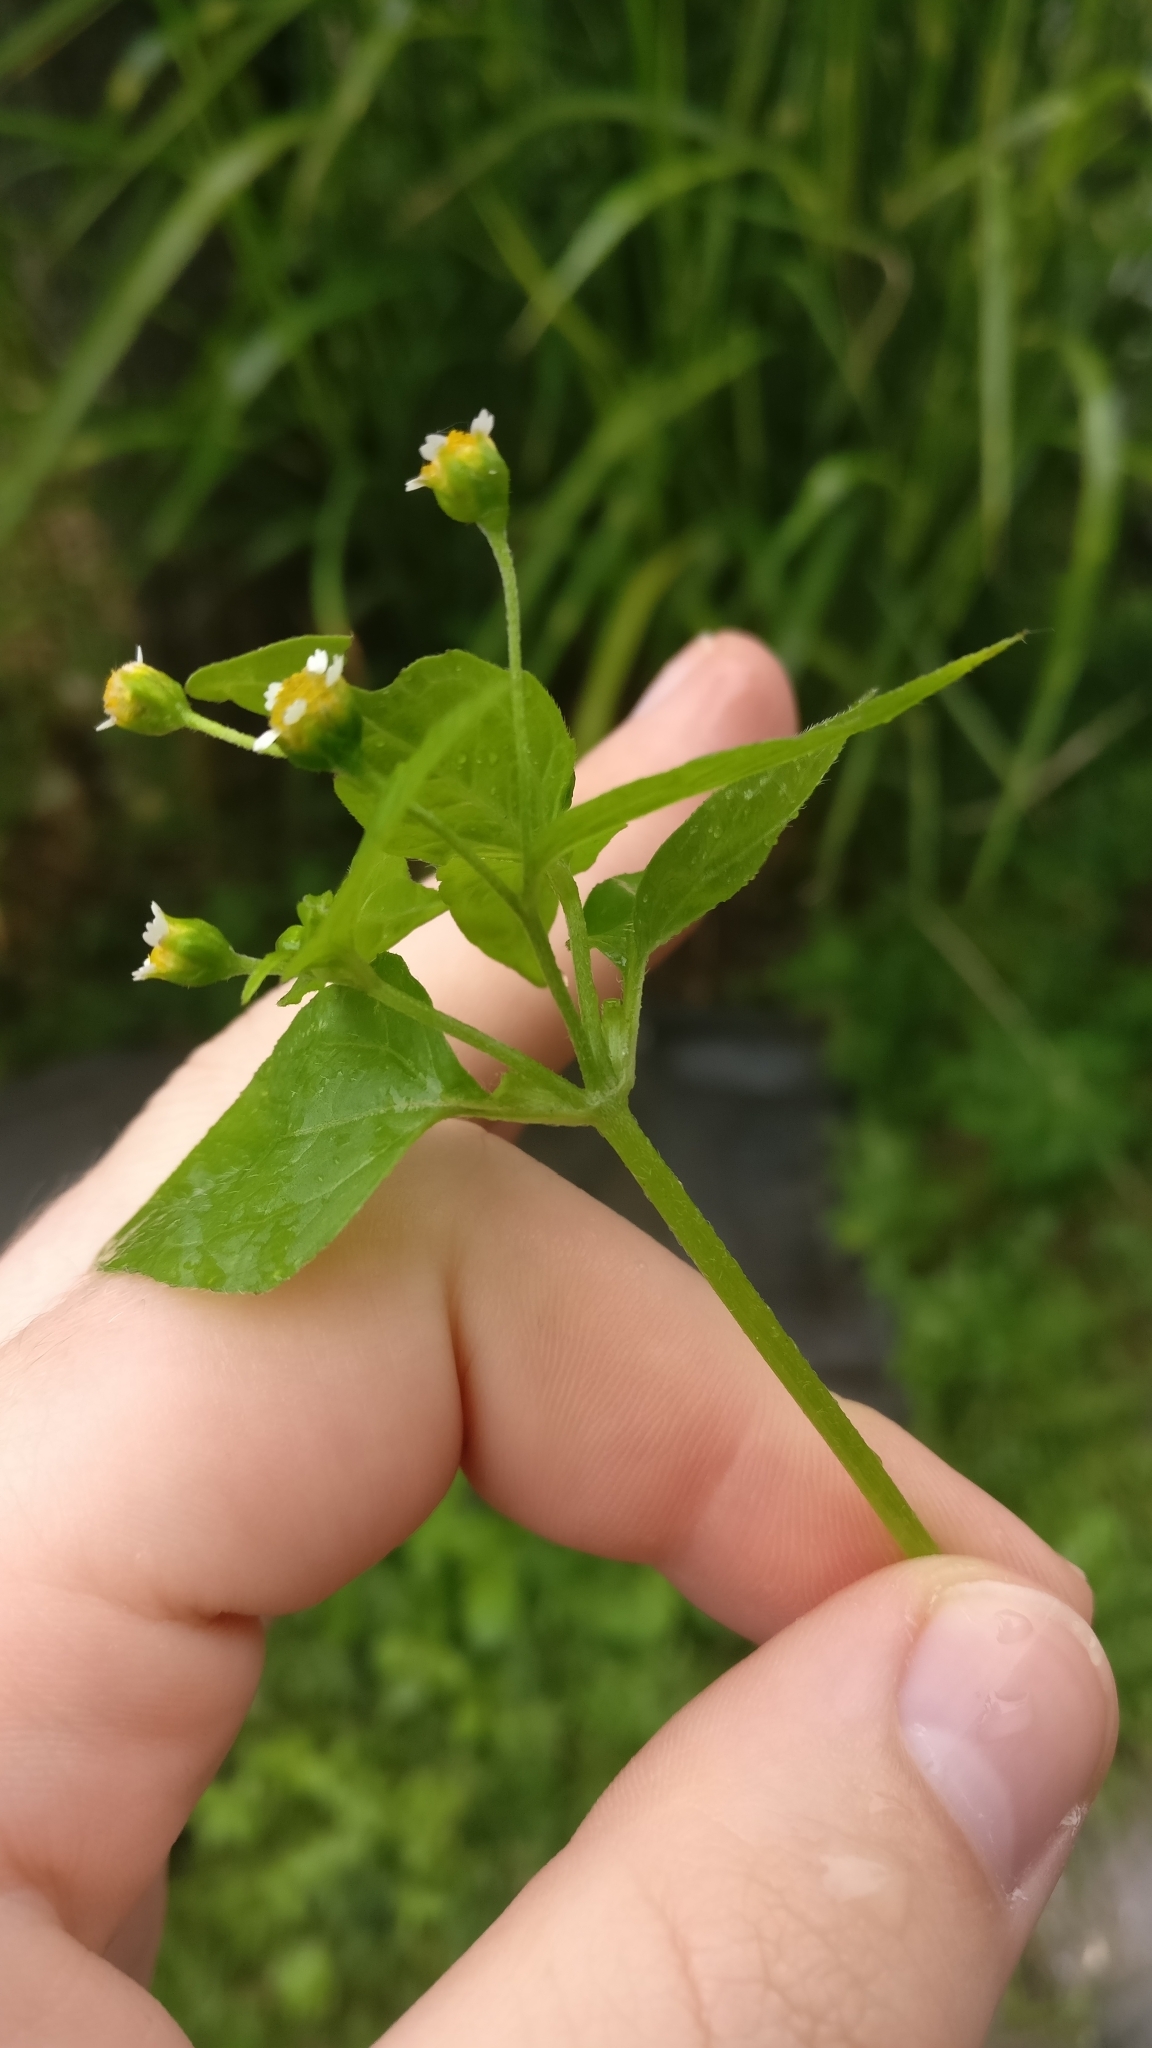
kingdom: Plantae
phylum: Tracheophyta
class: Magnoliopsida
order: Asterales
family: Asteraceae
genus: Galinsoga
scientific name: Galinsoga parviflora
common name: Gallant soldier
